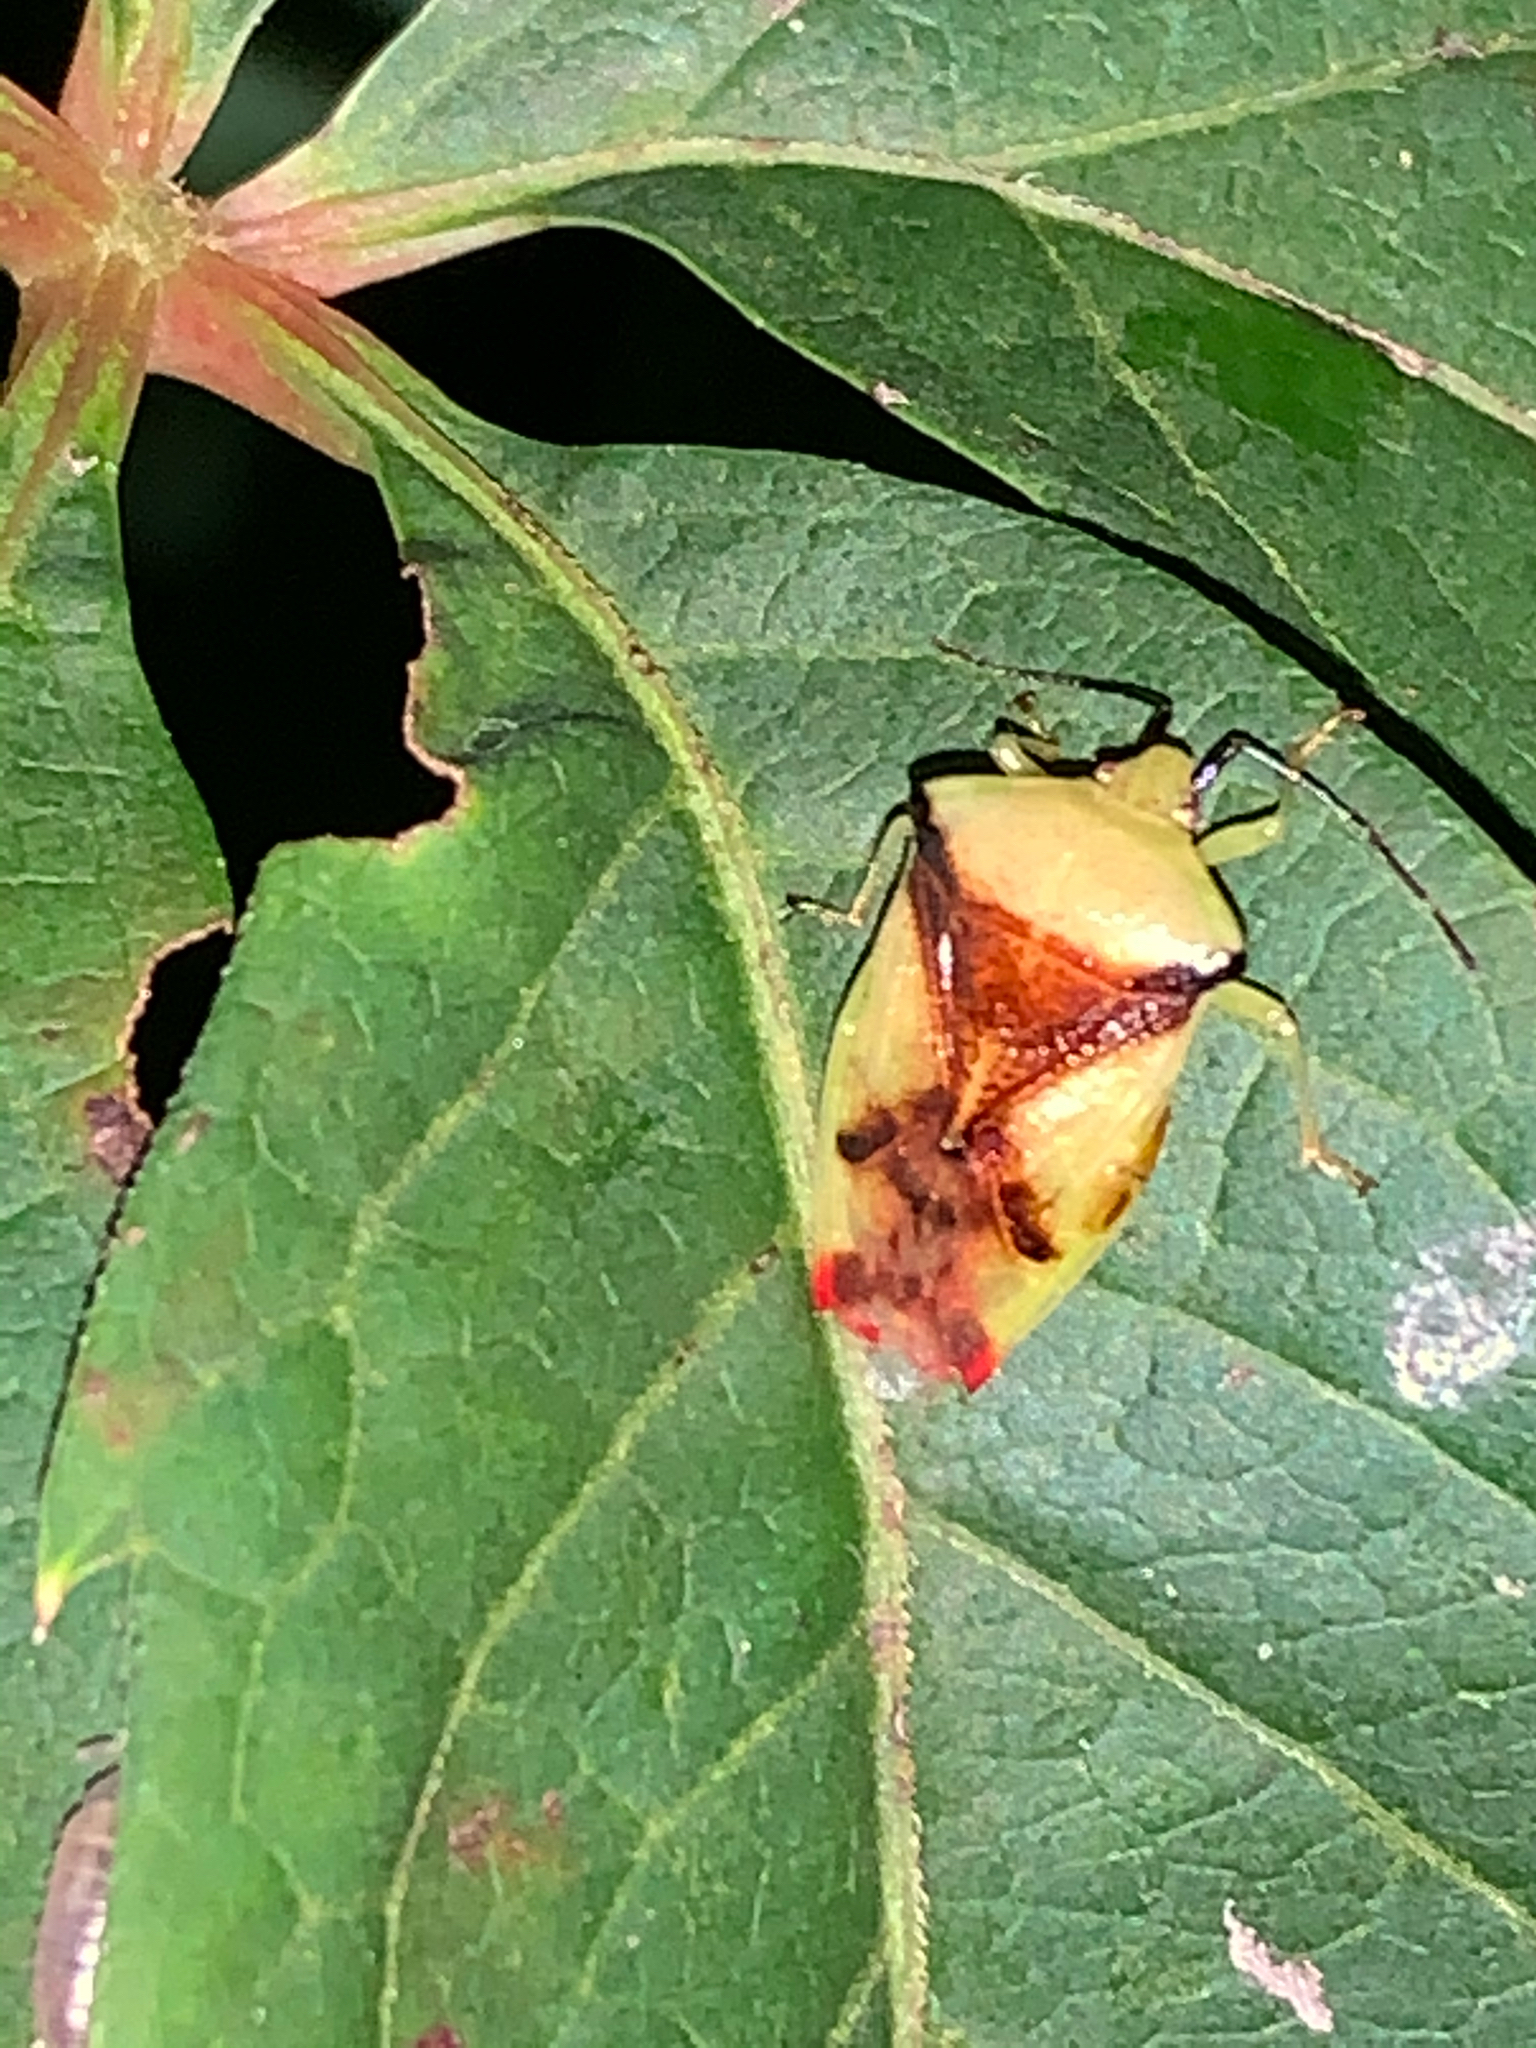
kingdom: Animalia
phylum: Arthropoda
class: Insecta
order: Hemiptera
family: Acanthosomatidae
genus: Elasmostethus
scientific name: Elasmostethus atricornis
